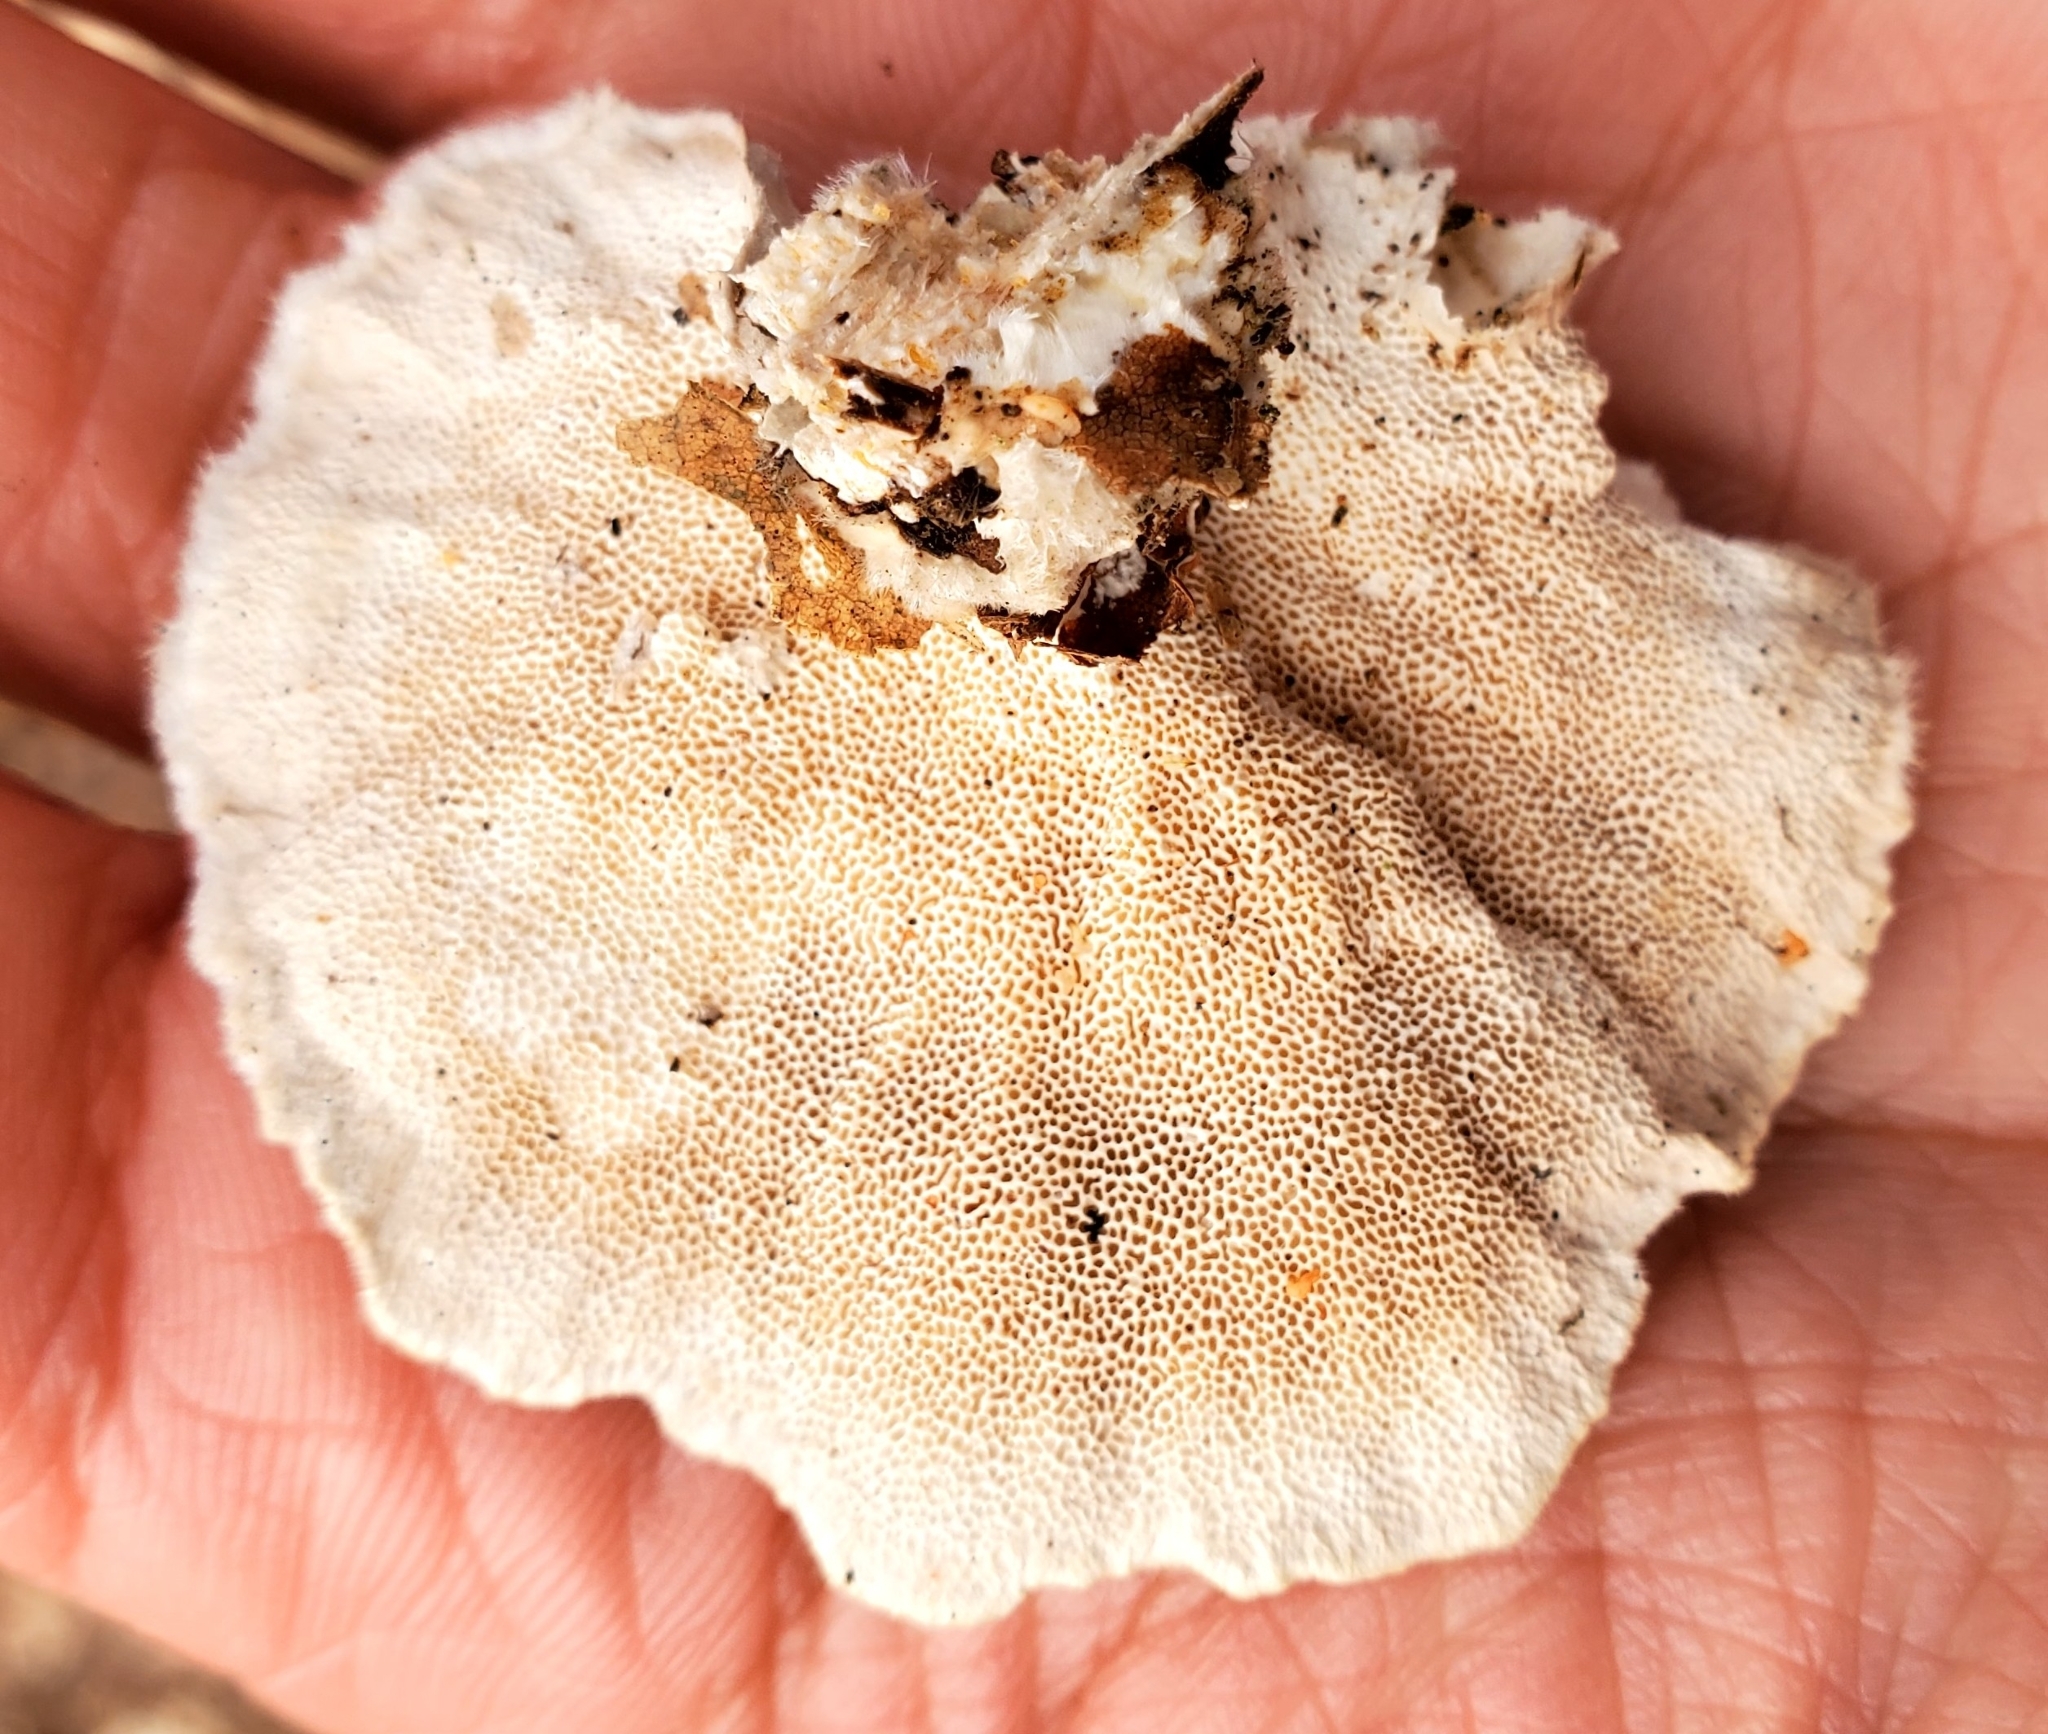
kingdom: Fungi
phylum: Basidiomycota
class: Agaricomycetes
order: Polyporales
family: Polyporaceae
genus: Trametes
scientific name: Trametes hirsuta
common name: Hairy bracket
